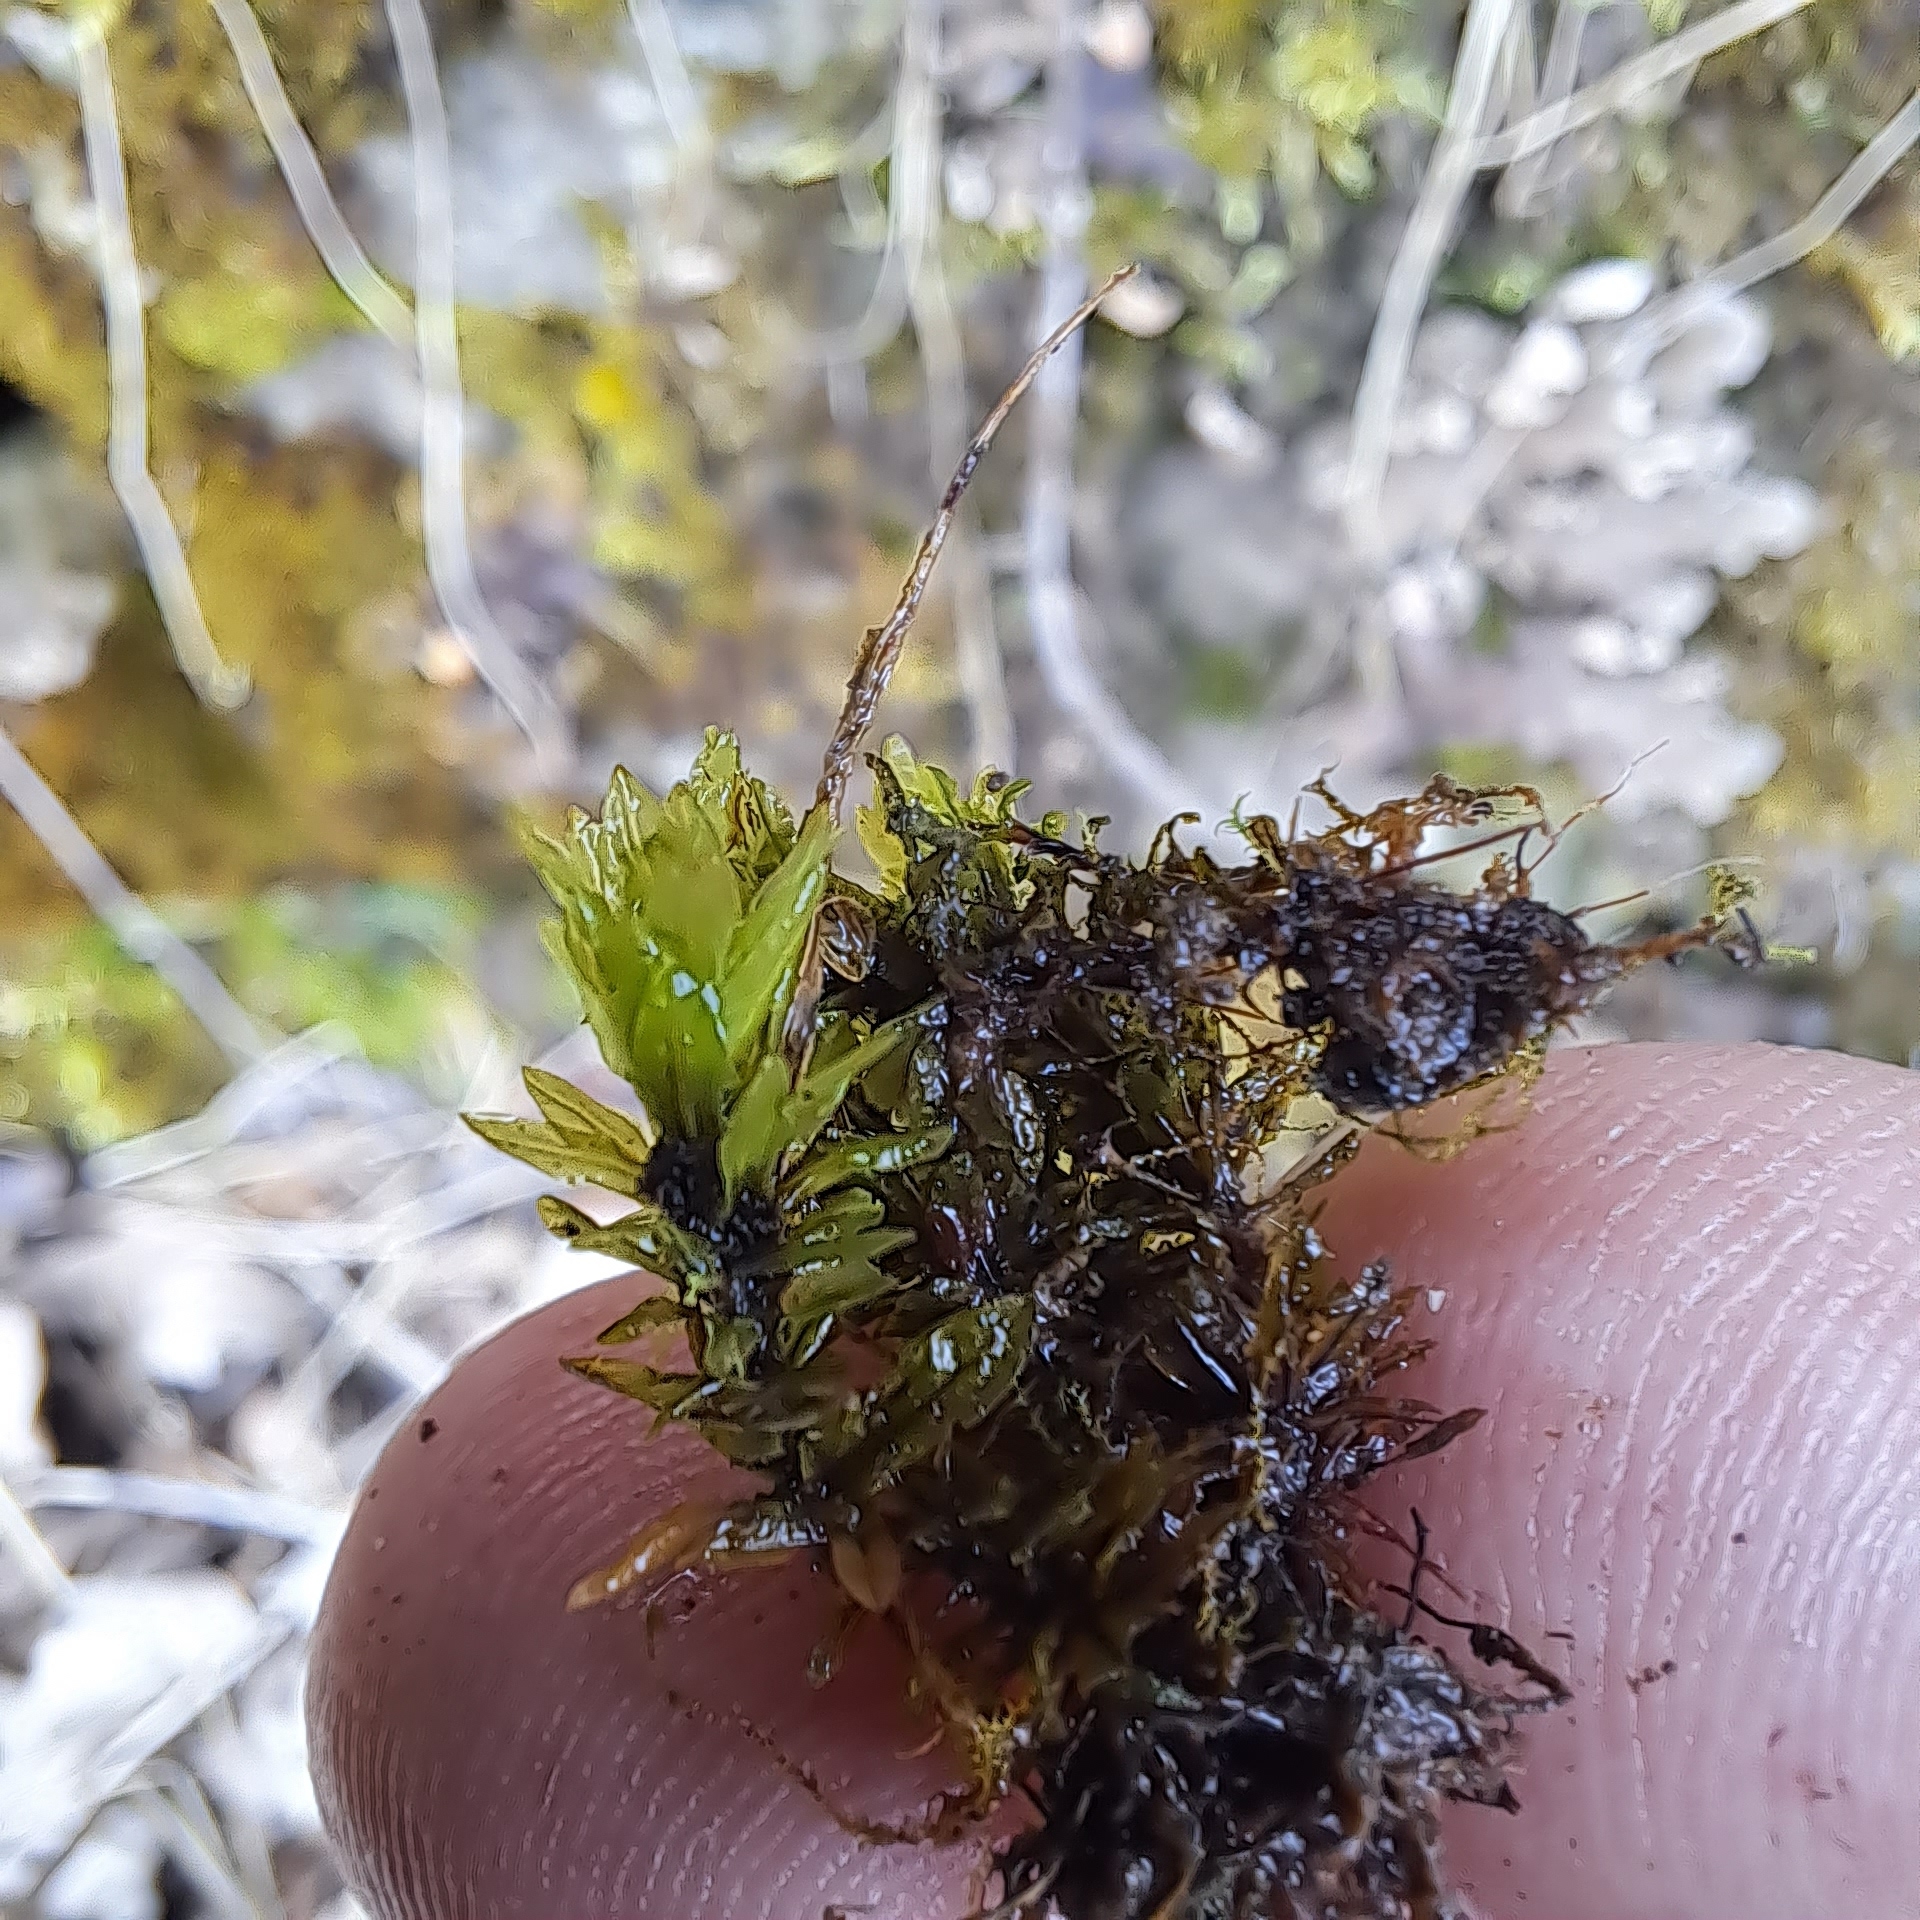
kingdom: Plantae
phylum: Bryophyta
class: Bryopsida
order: Encalyptales
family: Encalyptaceae
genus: Encalypta
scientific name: Encalypta streptocarpa
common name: Spiral extinguisher-moss
